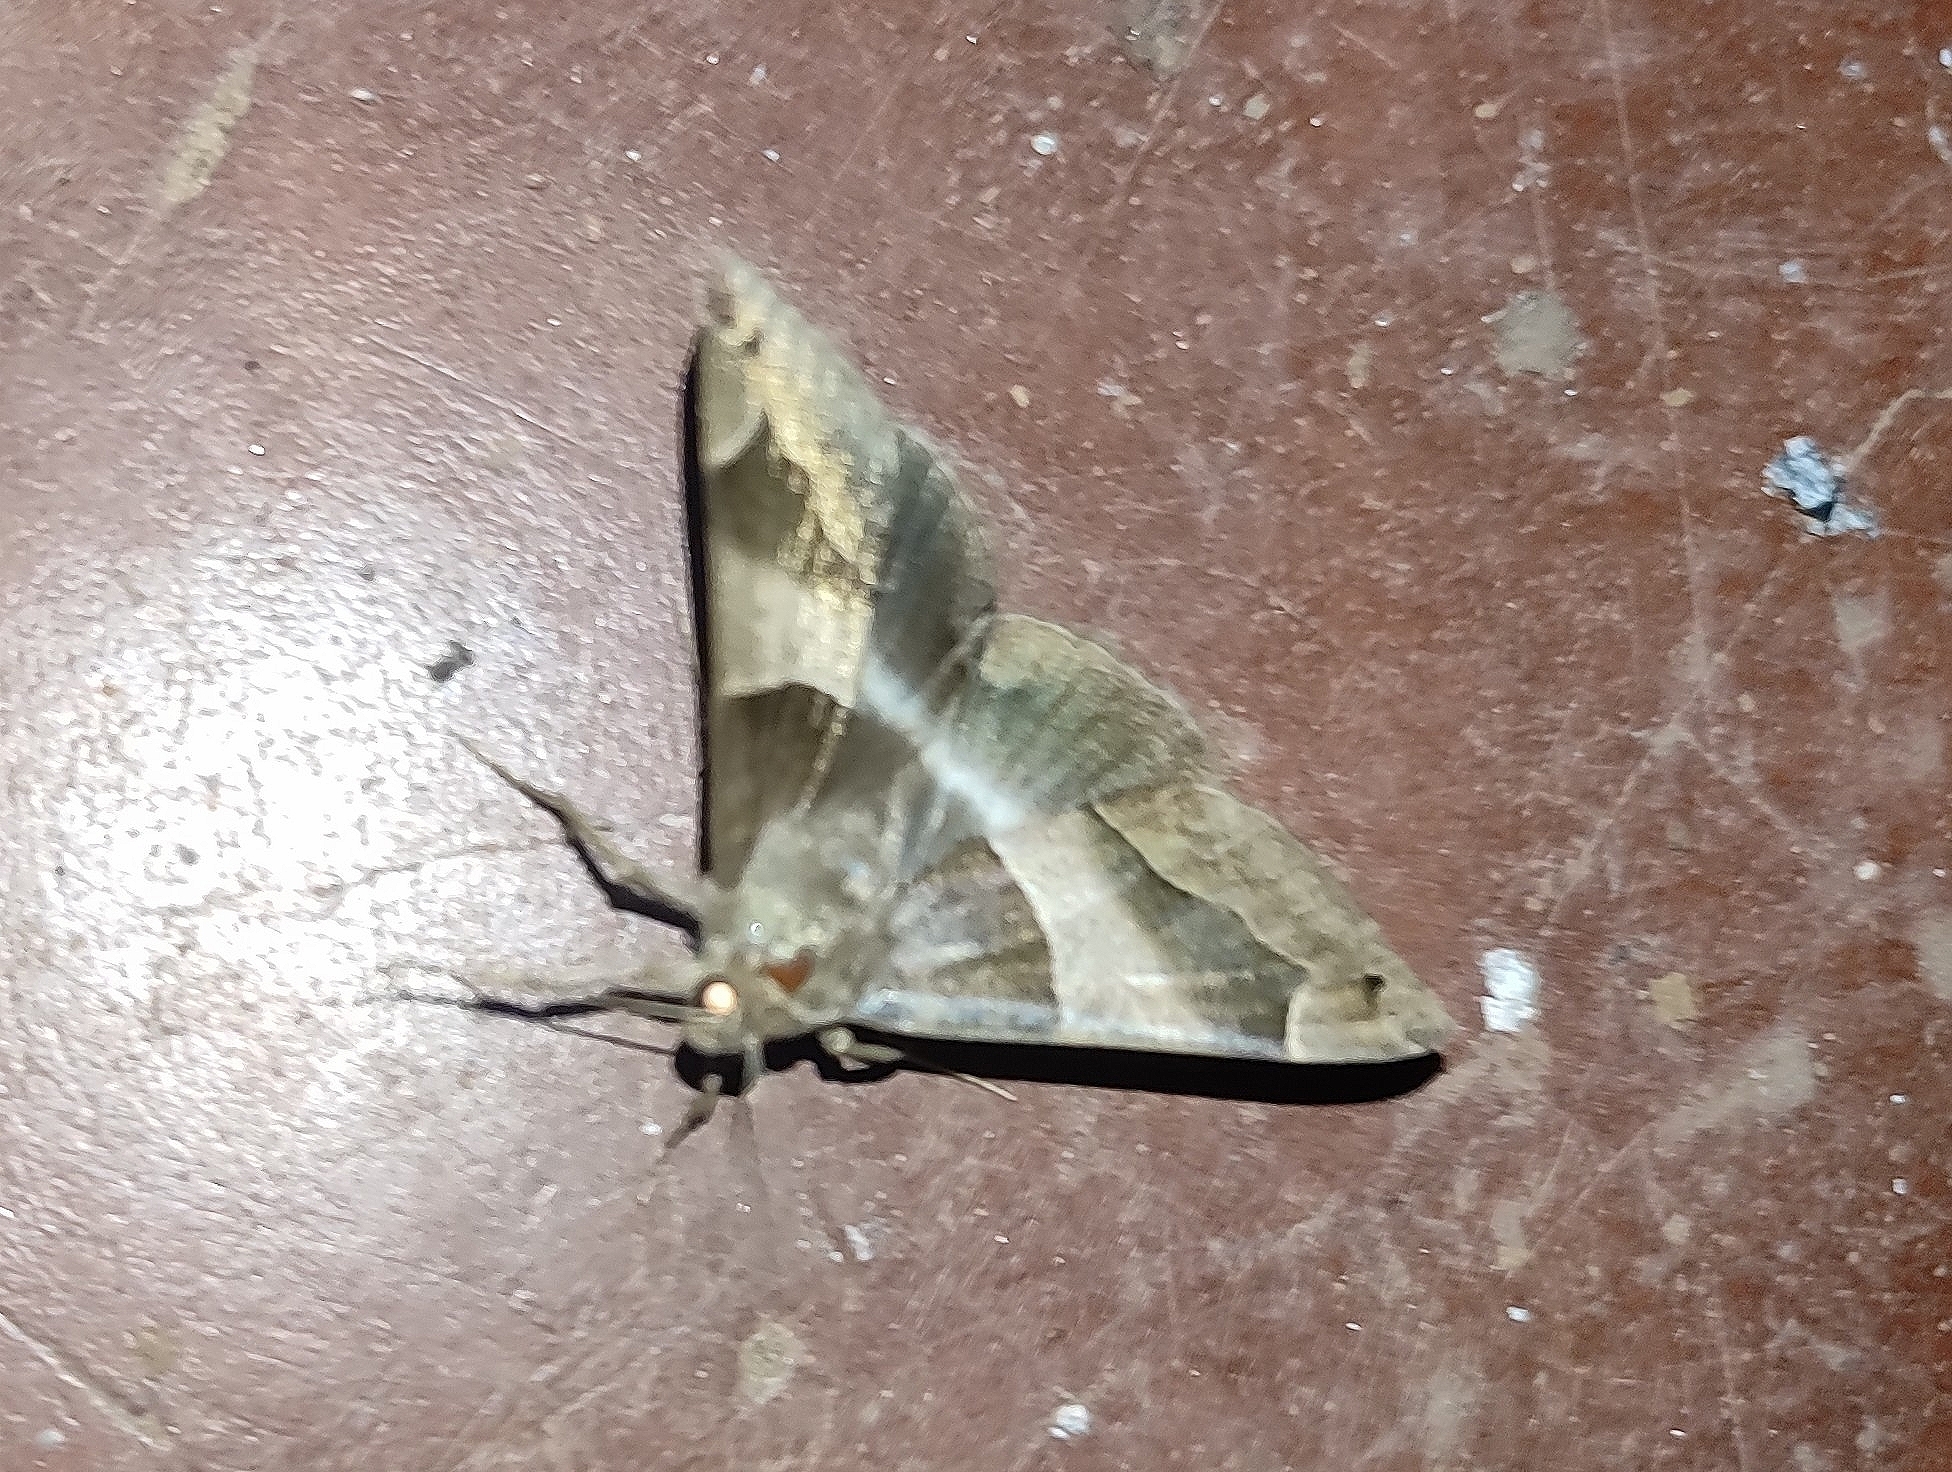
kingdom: Animalia
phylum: Arthropoda
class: Insecta
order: Lepidoptera
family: Erebidae
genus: Dysgonia
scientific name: Dysgonia stuposa
